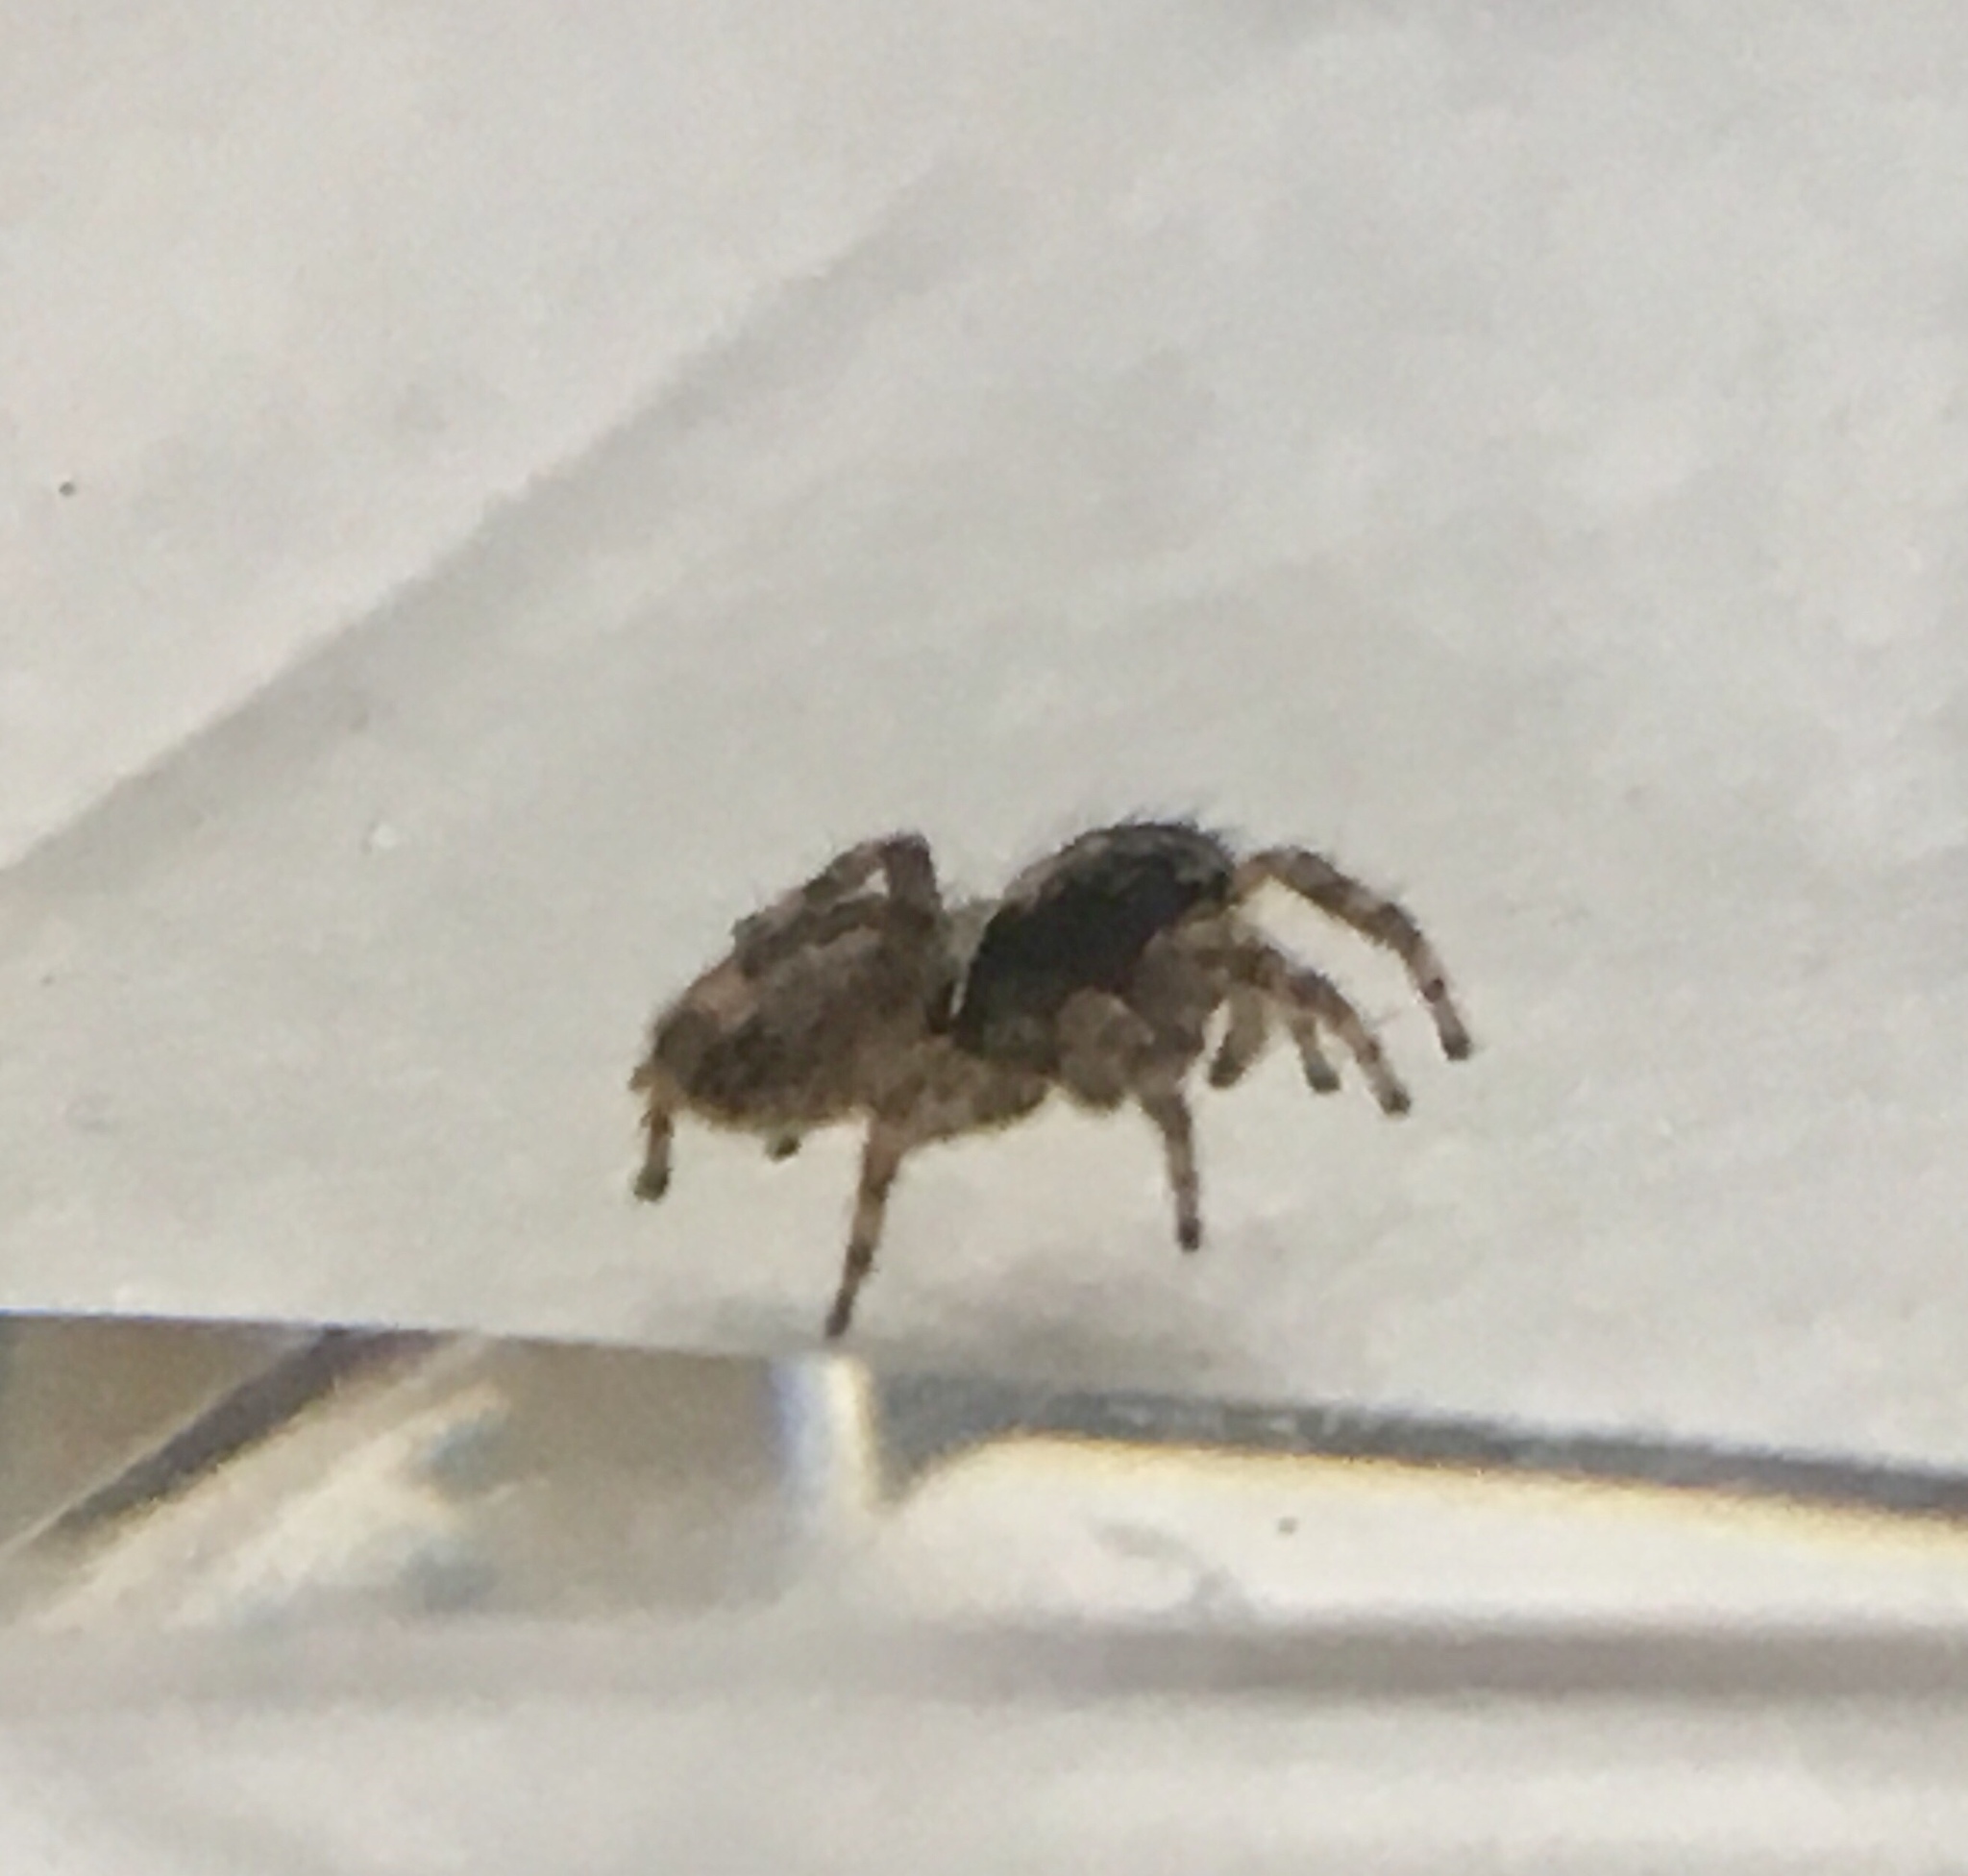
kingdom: Animalia
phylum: Arthropoda
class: Arachnida
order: Araneae
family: Salticidae
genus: Attulus
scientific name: Attulus fasciger
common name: Asiatic wall jumping spider
